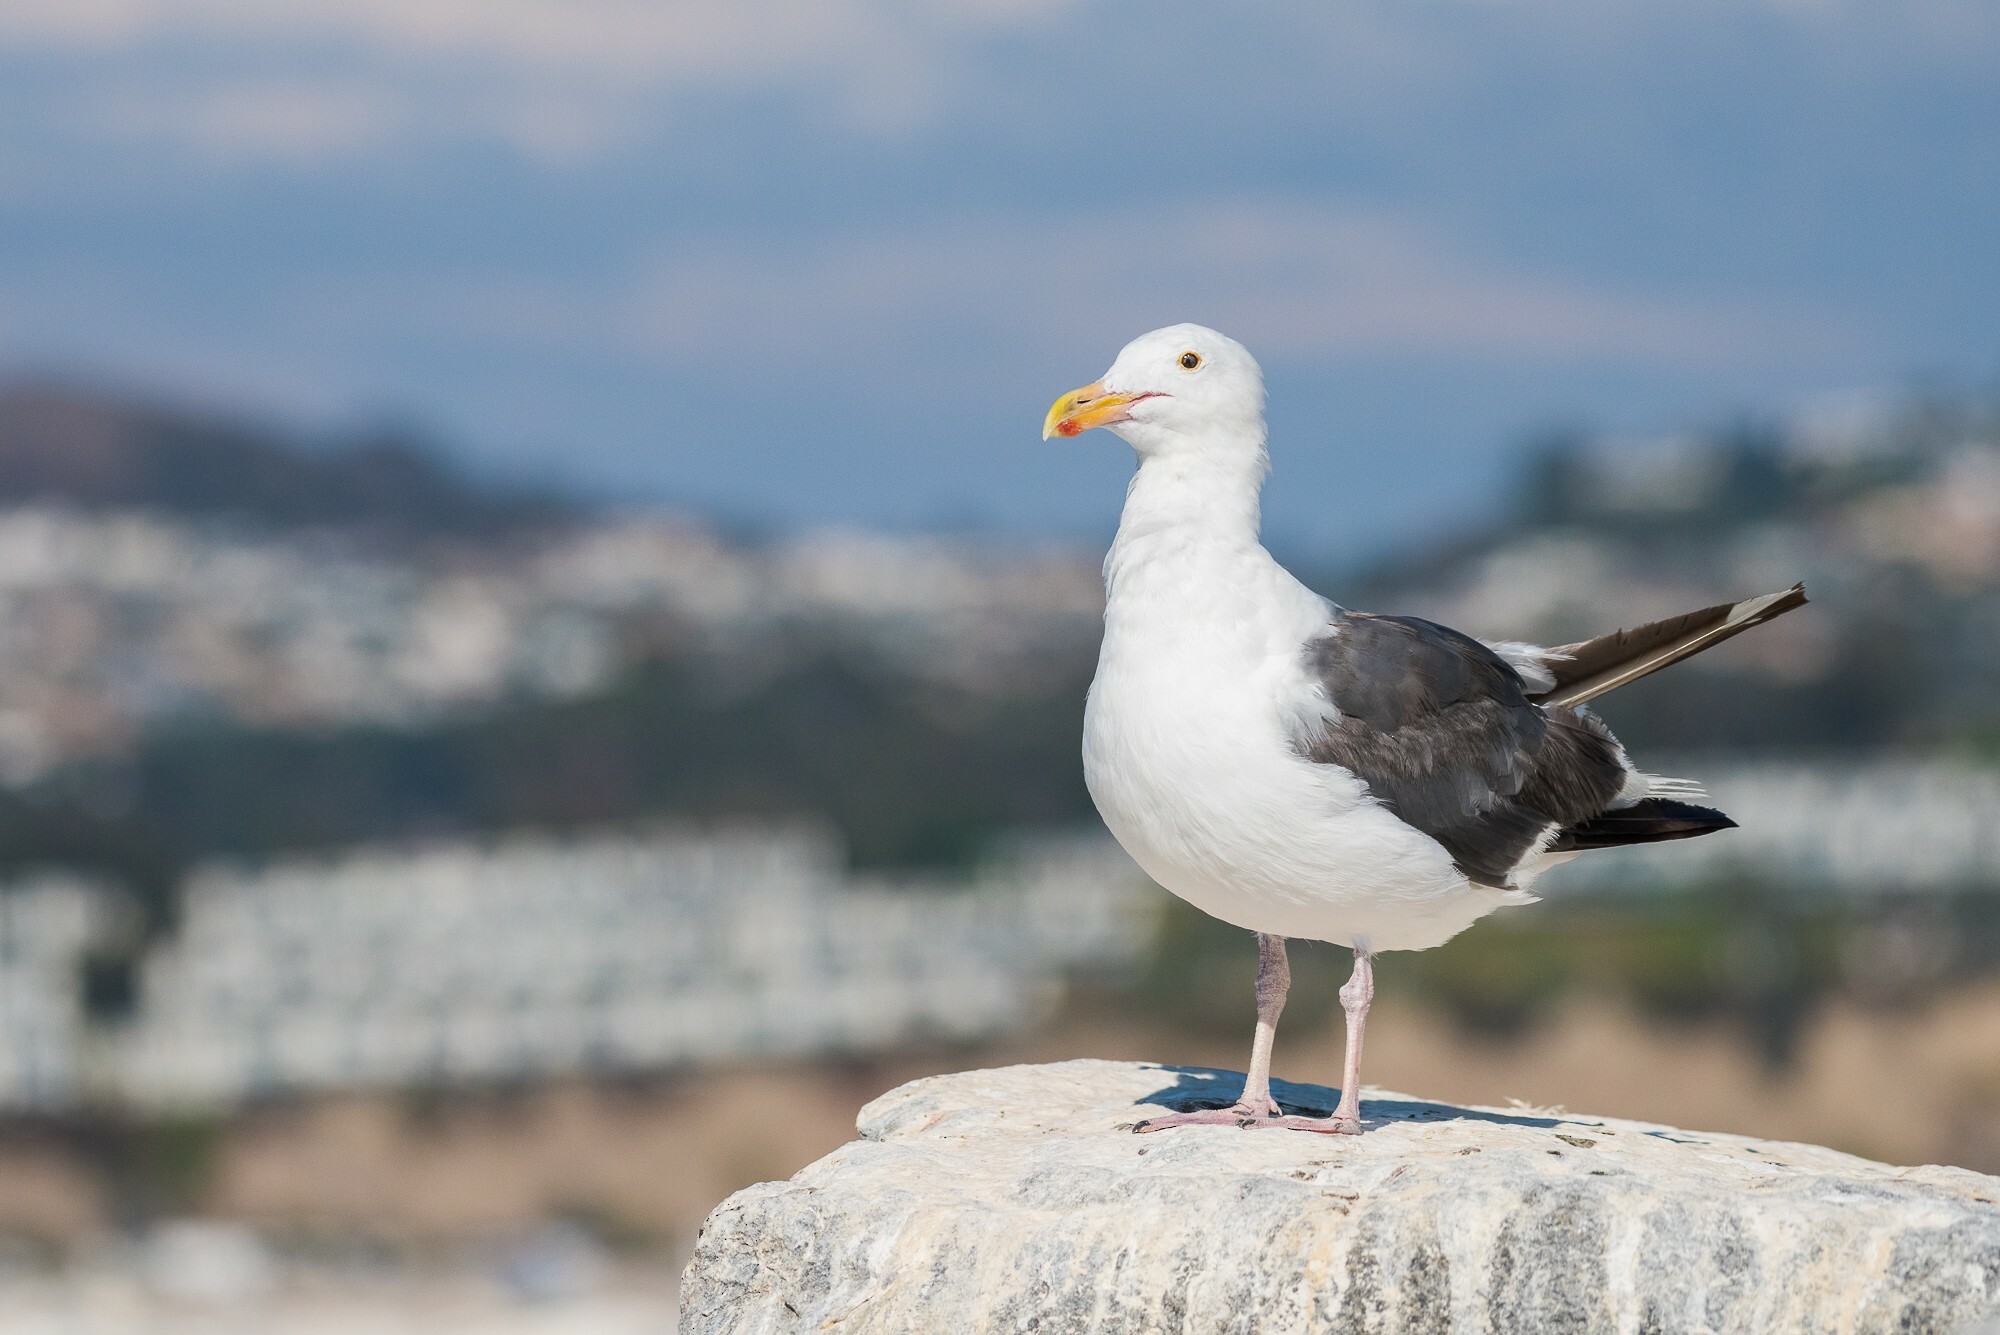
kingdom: Animalia
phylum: Chordata
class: Aves
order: Charadriiformes
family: Laridae
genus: Larus
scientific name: Larus occidentalis
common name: Western gull
